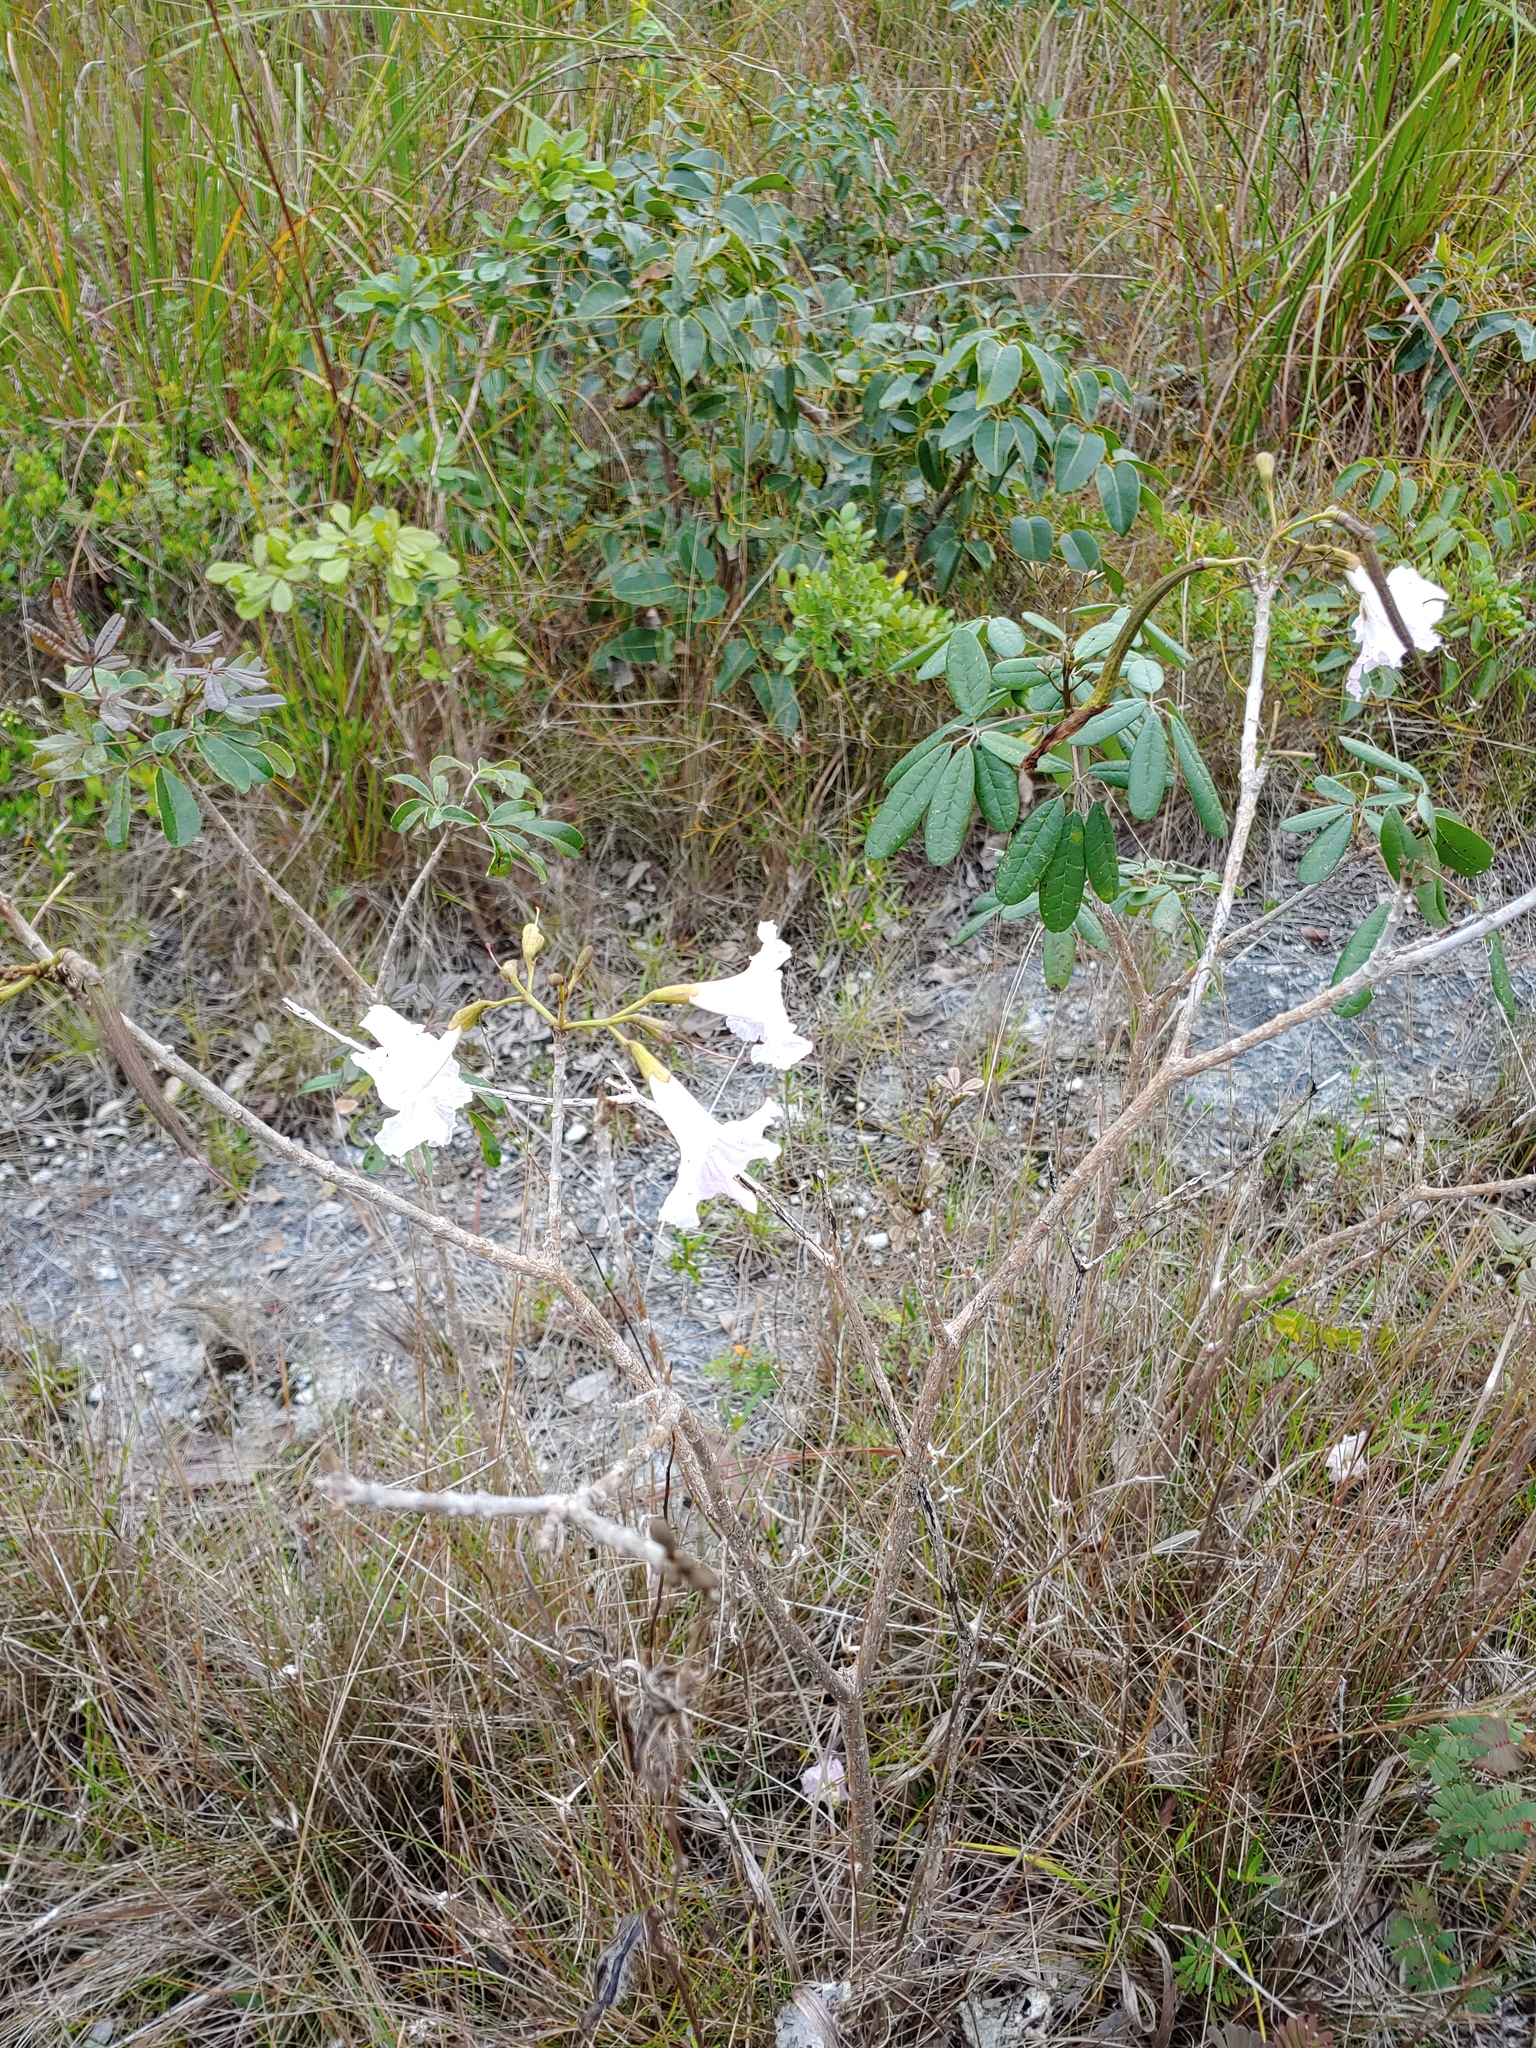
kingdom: Plantae
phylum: Tracheophyta
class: Magnoliopsida
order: Lamiales
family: Bignoniaceae
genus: Tabebuia
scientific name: Tabebuia bahamensis
